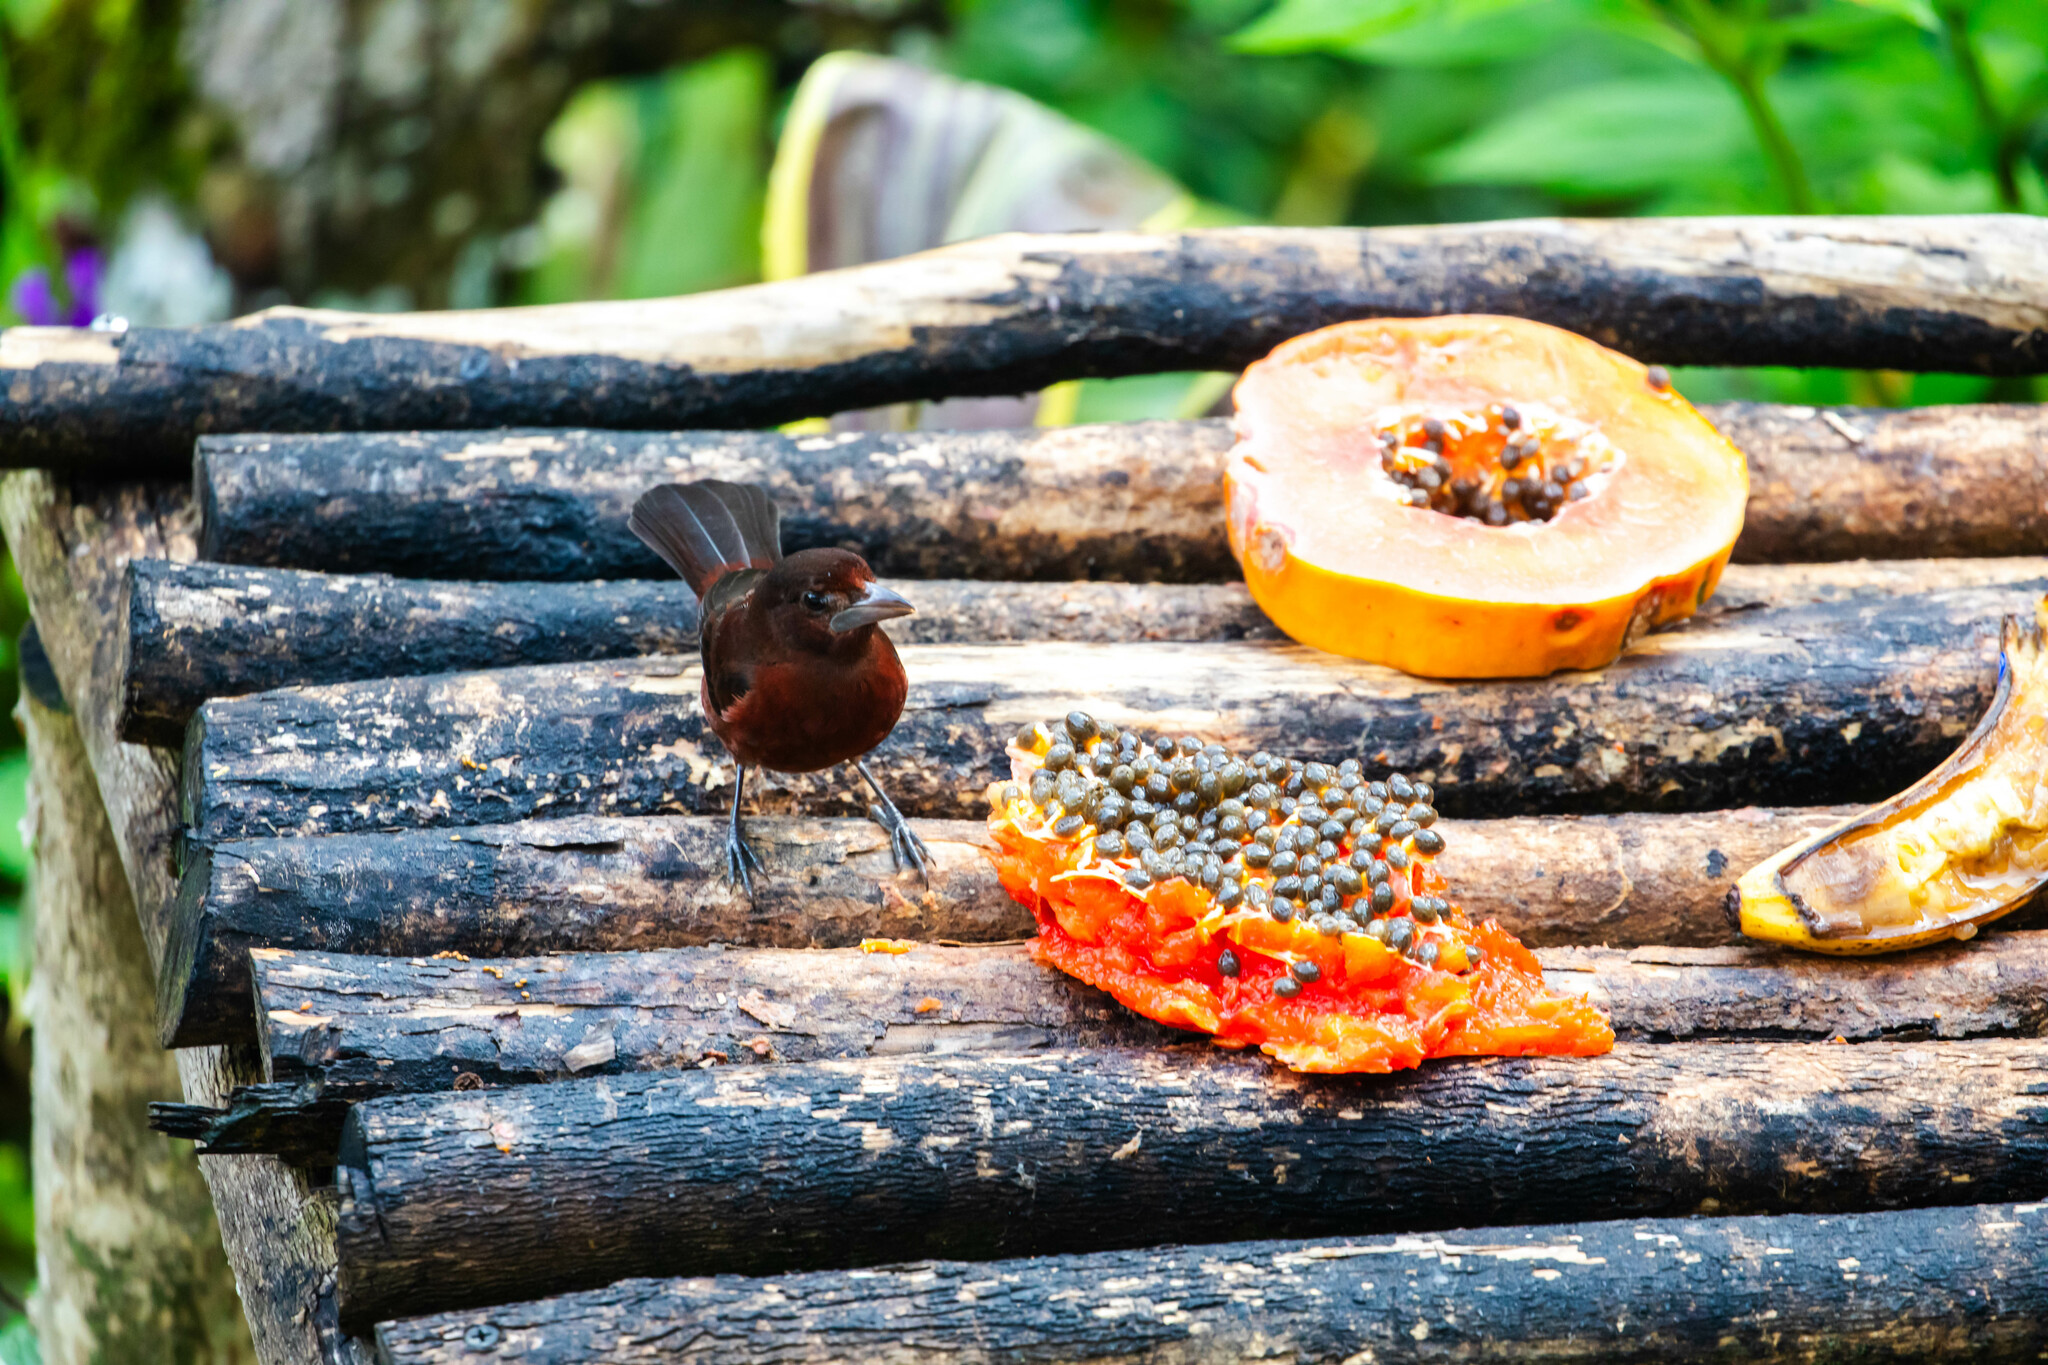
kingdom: Animalia
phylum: Chordata
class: Aves
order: Passeriformes
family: Thraupidae
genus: Ramphocelus
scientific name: Ramphocelus carbo
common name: Silver-beaked tanager
